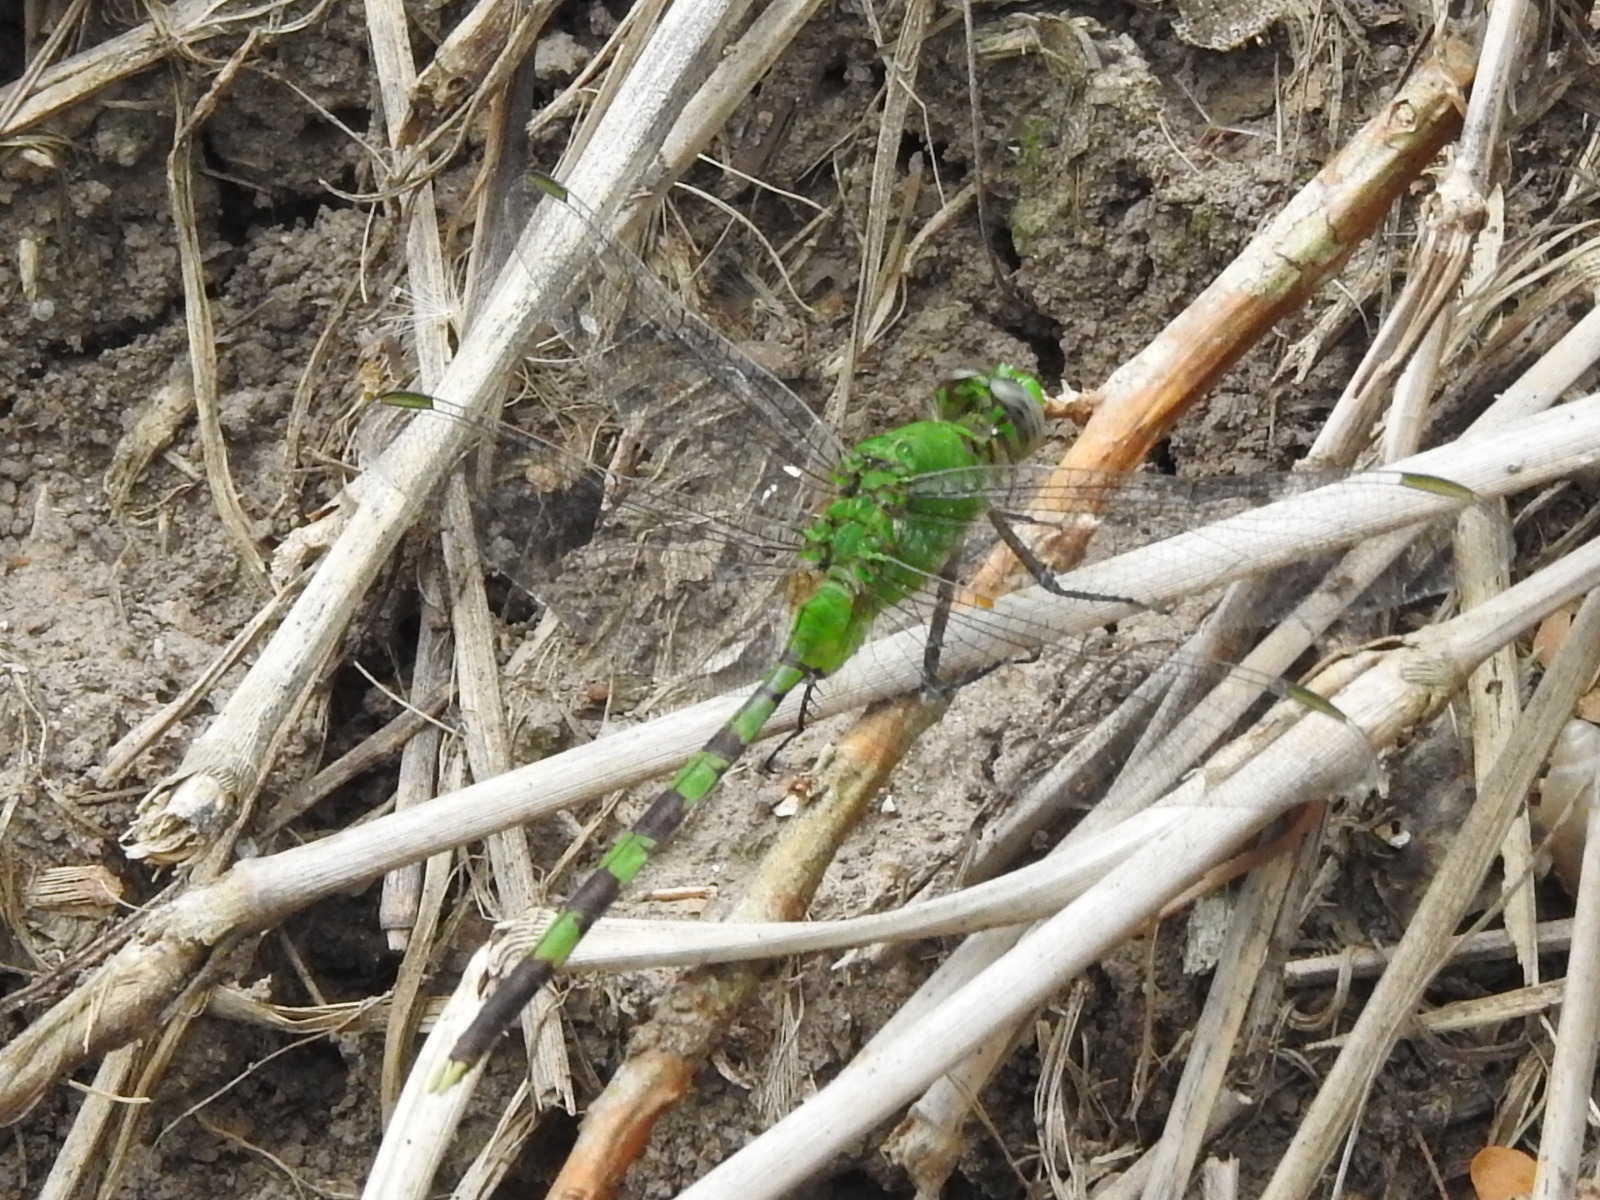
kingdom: Animalia
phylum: Arthropoda
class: Insecta
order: Odonata
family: Libellulidae
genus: Erythemis
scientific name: Erythemis vesiculosa
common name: Great pondhawk
